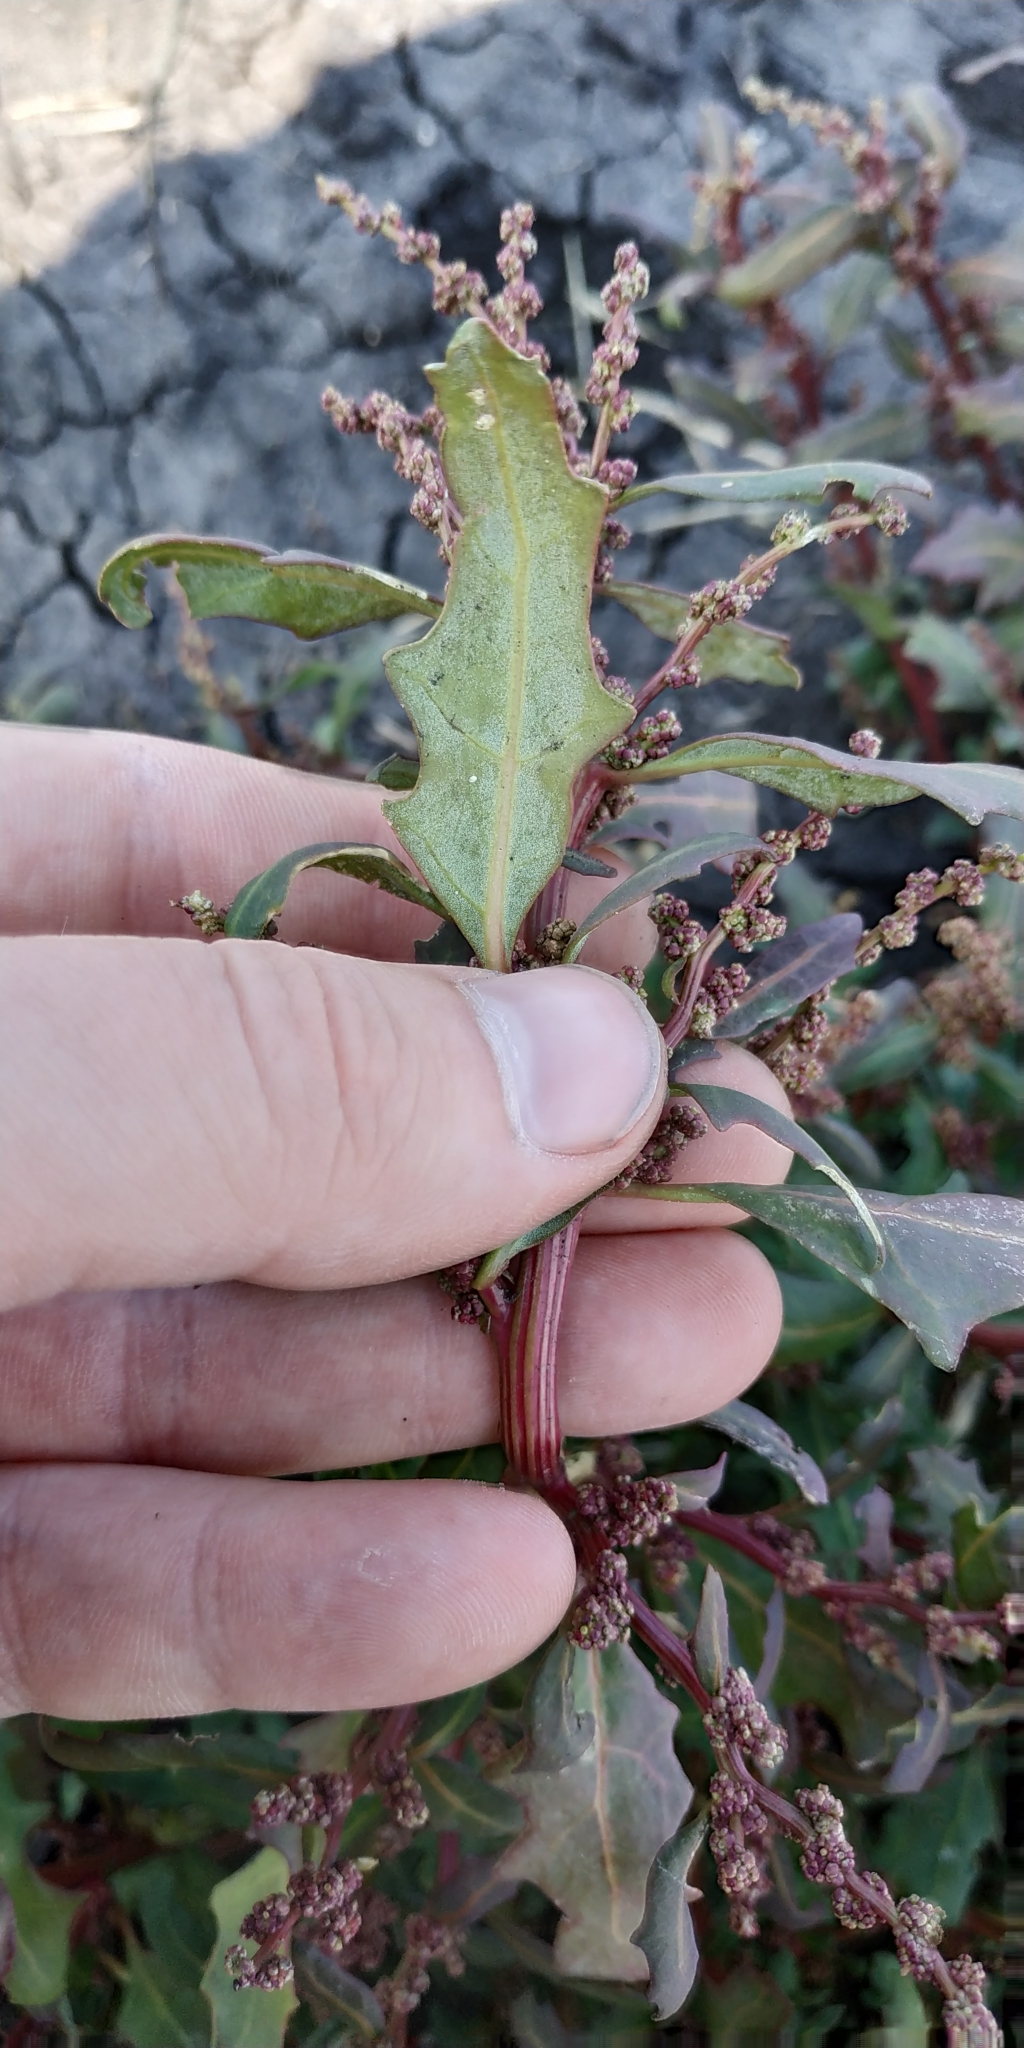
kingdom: Plantae
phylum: Tracheophyta
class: Magnoliopsida
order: Caryophyllales
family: Amaranthaceae
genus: Oxybasis
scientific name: Oxybasis glauca
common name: Glaucous goosefoot
